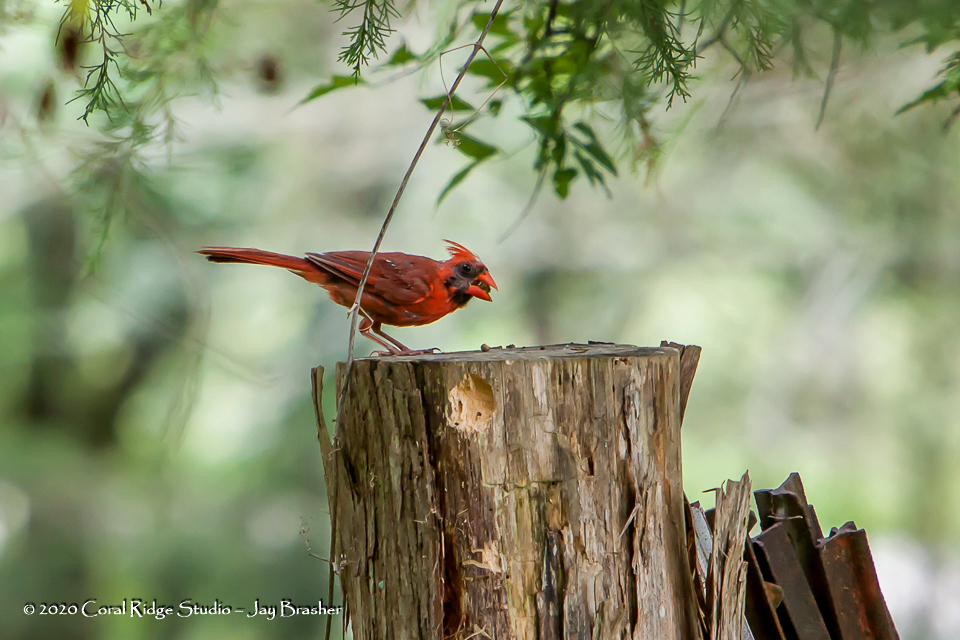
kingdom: Animalia
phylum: Chordata
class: Aves
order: Passeriformes
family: Cardinalidae
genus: Cardinalis
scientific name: Cardinalis cardinalis
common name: Northern cardinal
